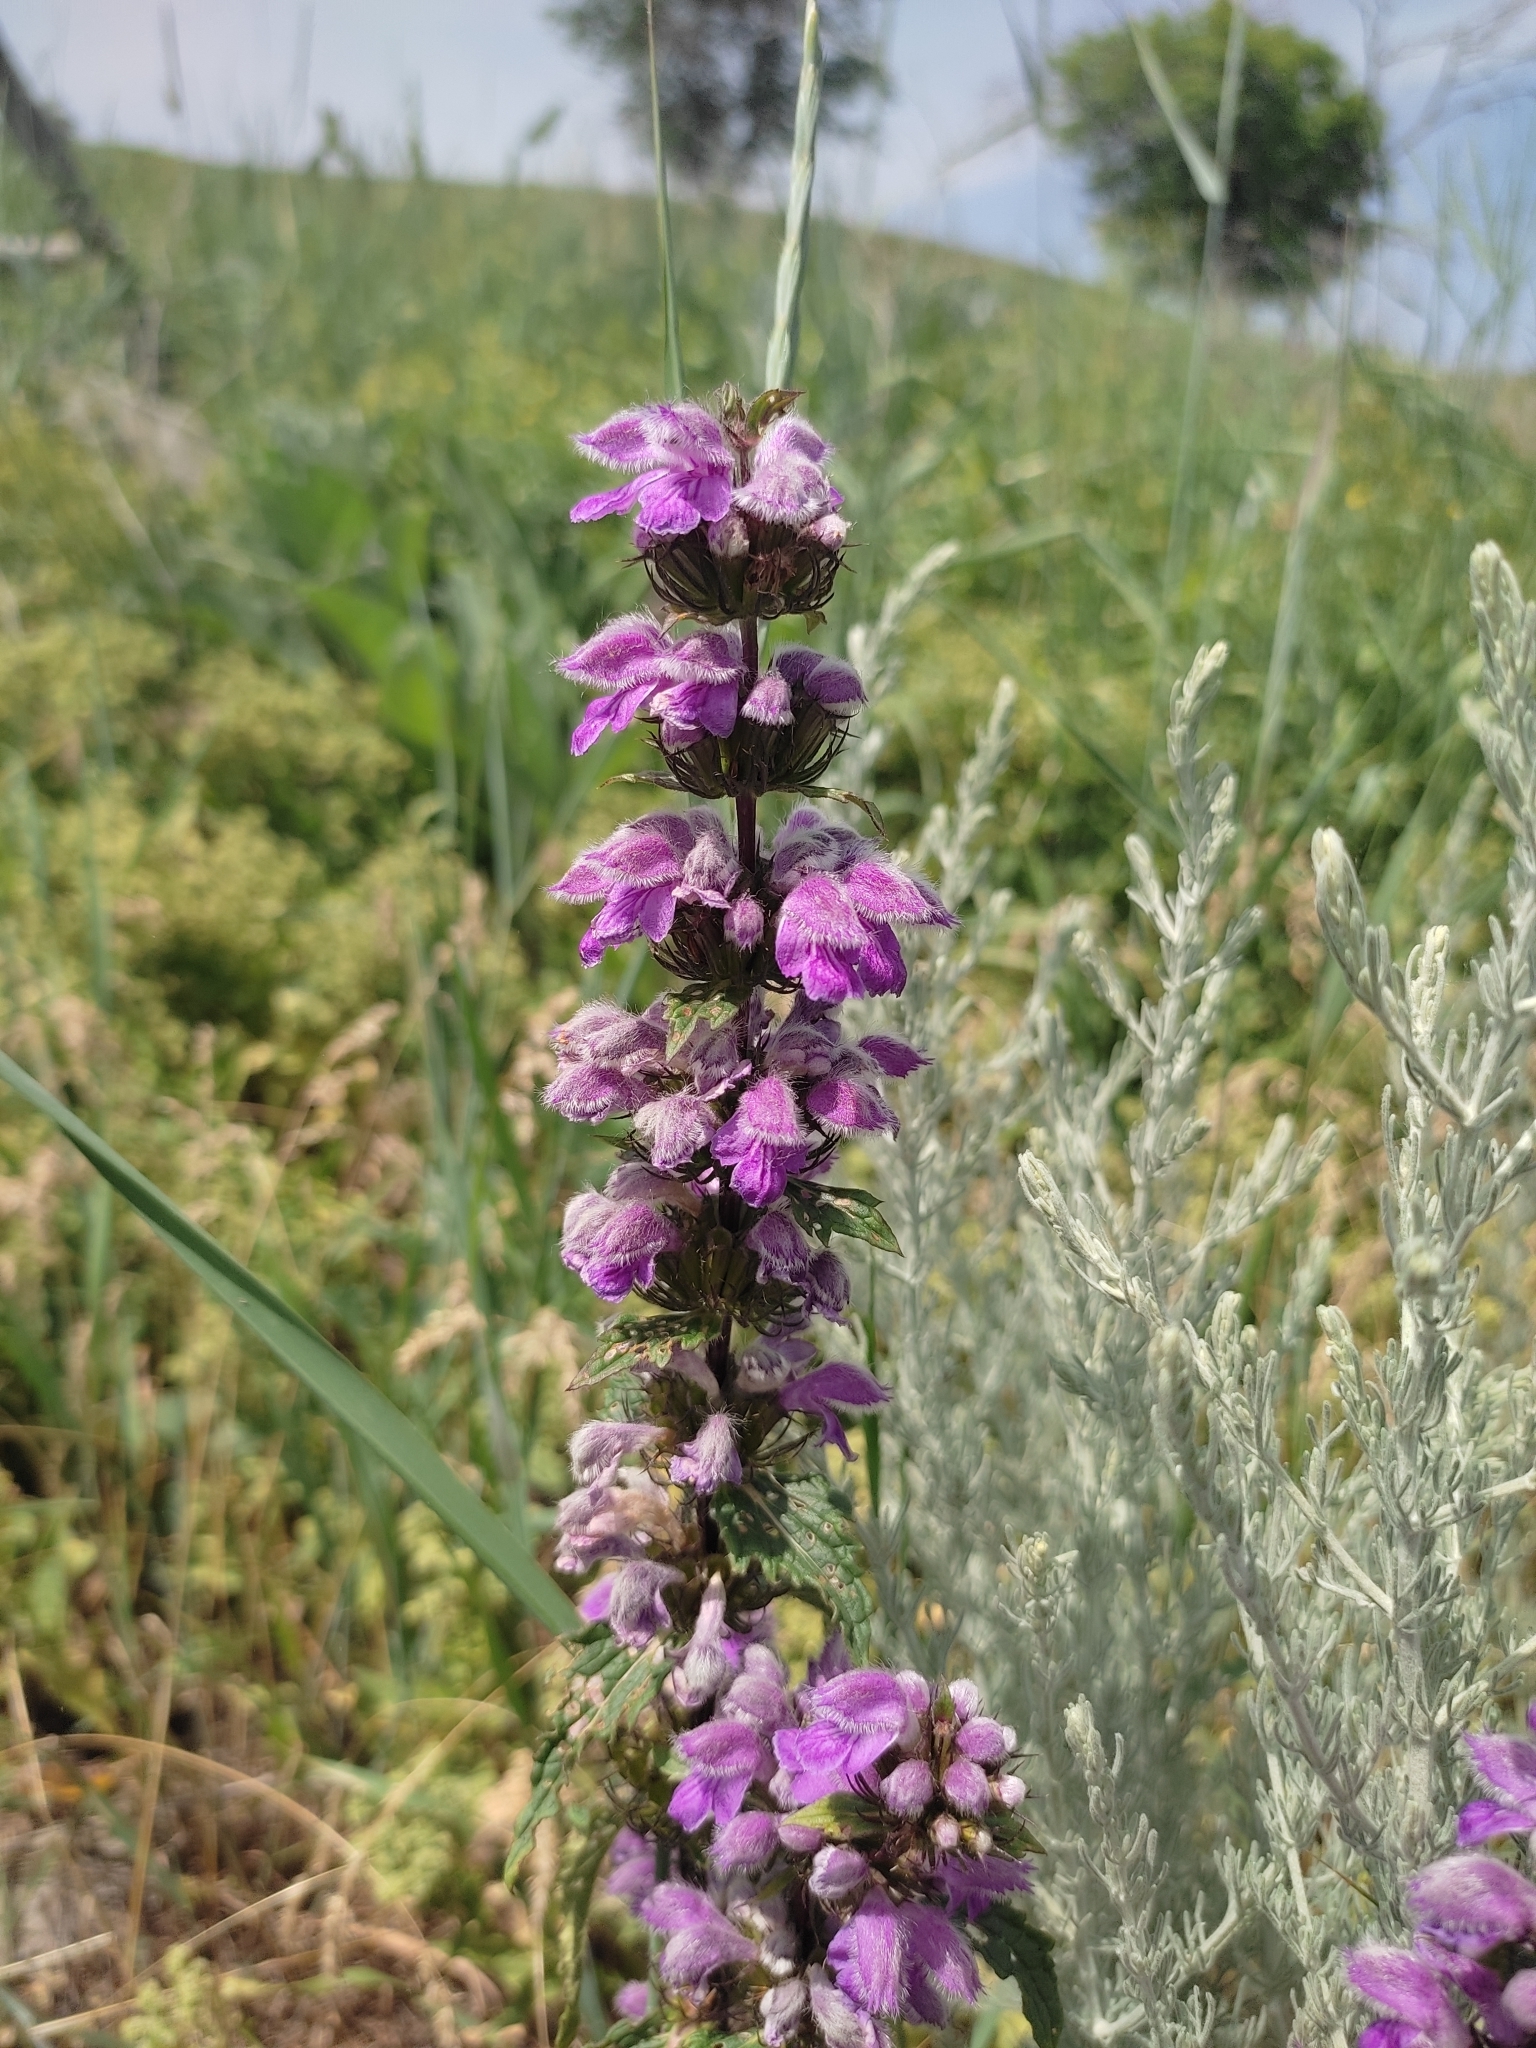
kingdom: Plantae
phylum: Tracheophyta
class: Magnoliopsida
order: Lamiales
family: Lamiaceae
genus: Phlomoides
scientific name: Phlomoides tuberosa
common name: Tuberous jerusalem sage
